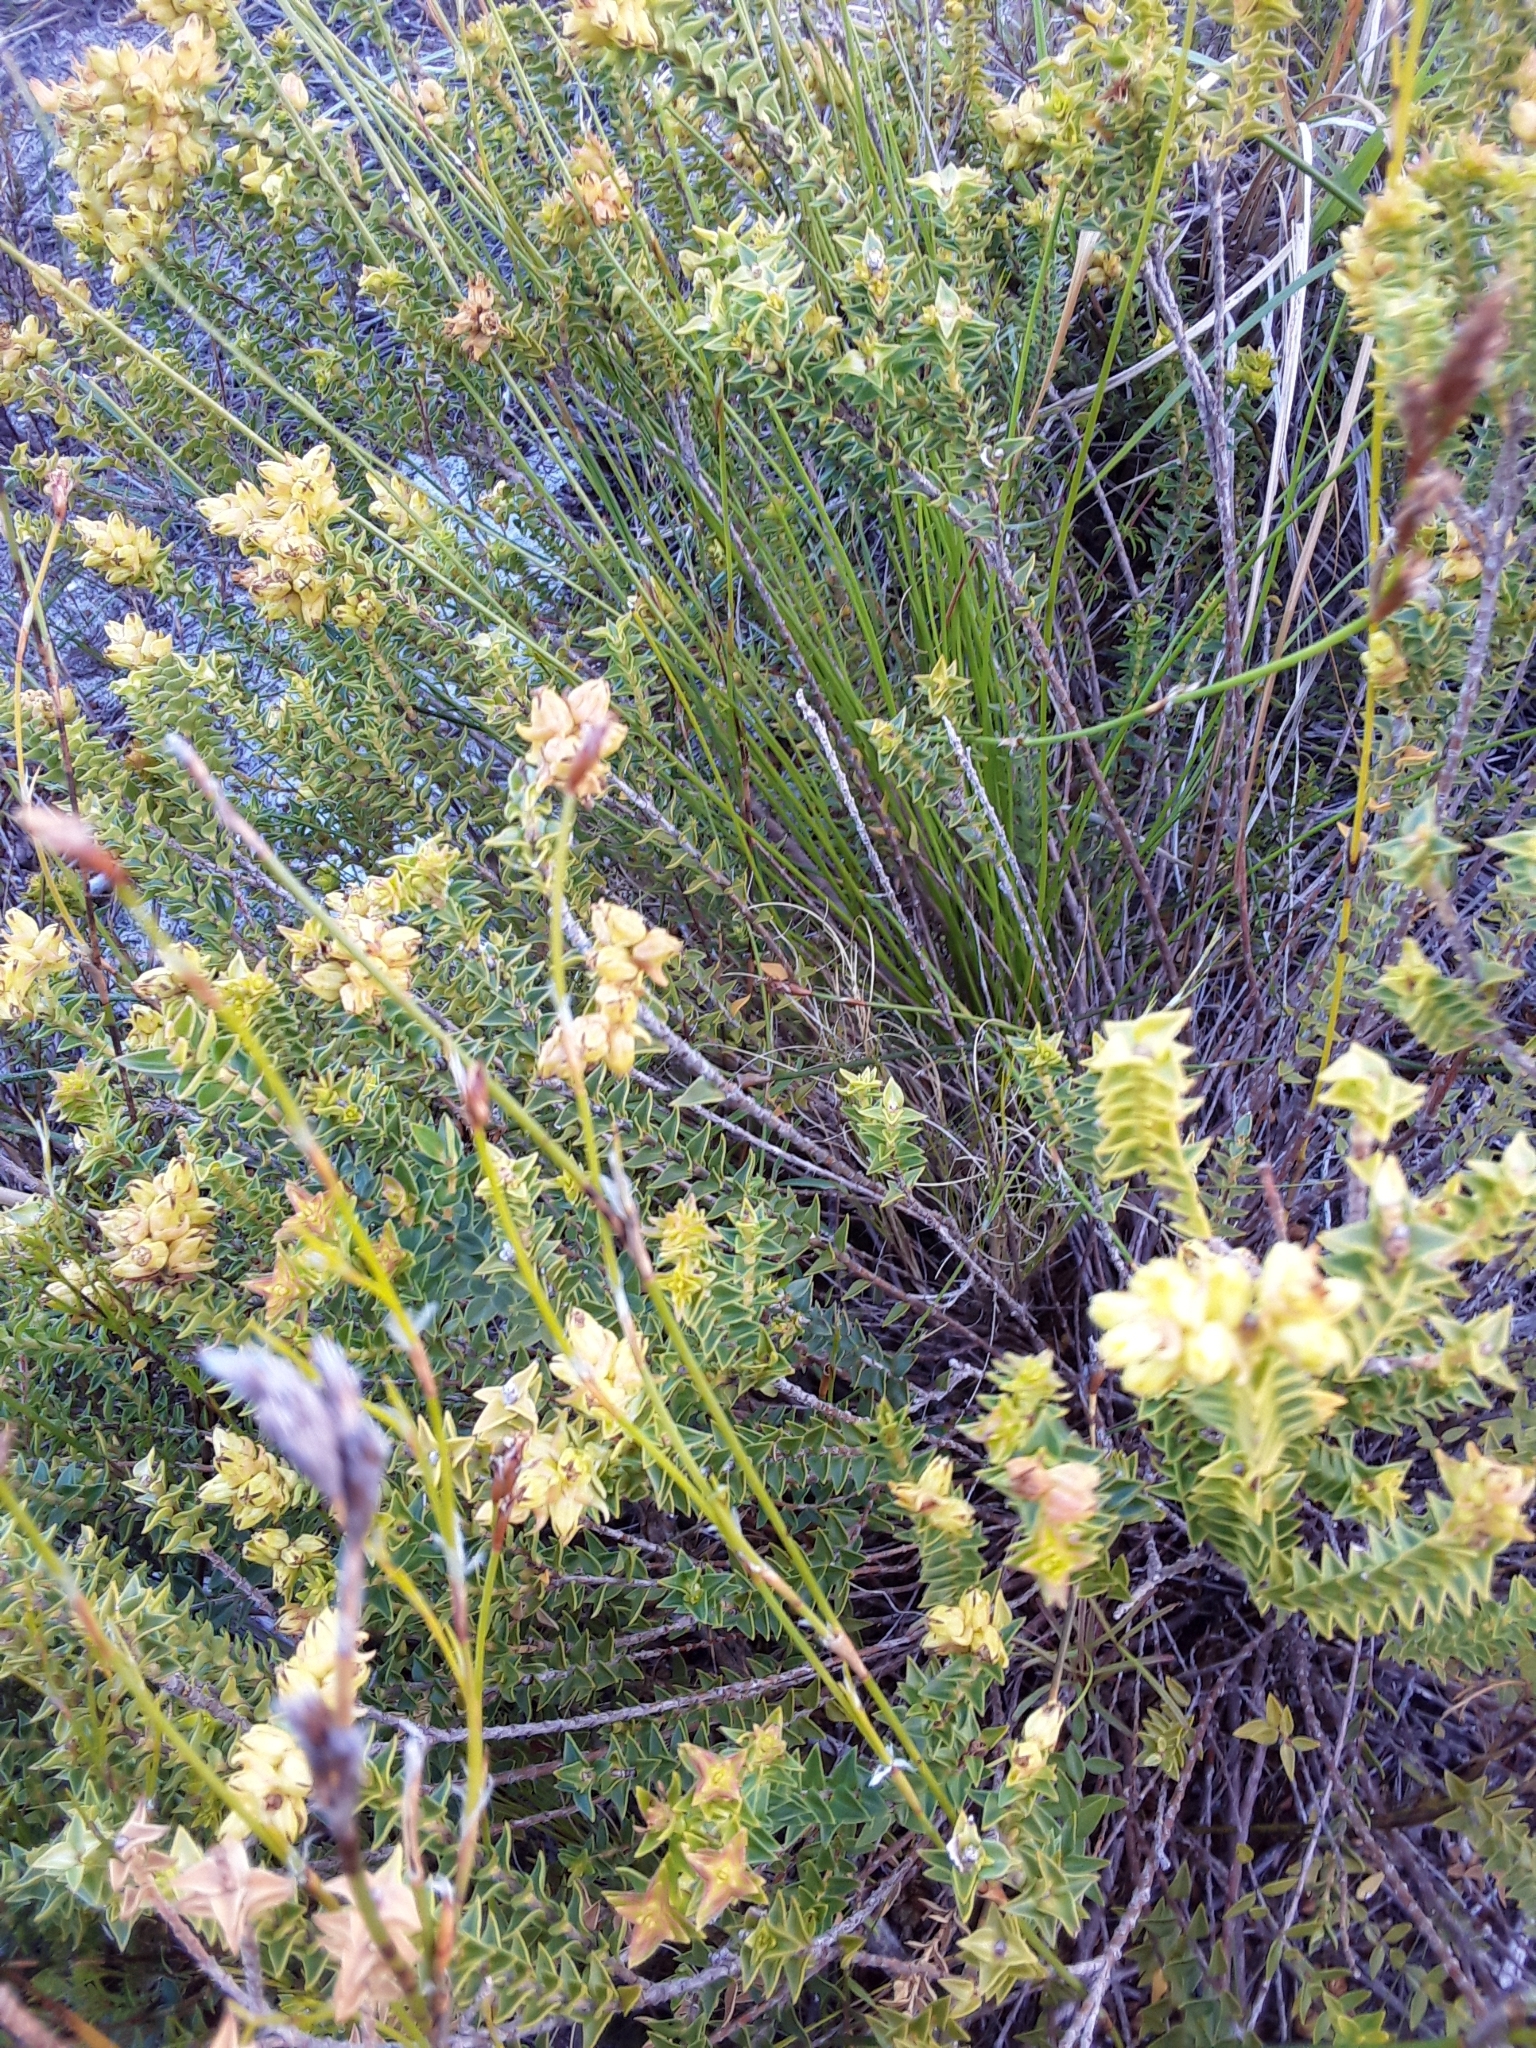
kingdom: Plantae
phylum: Tracheophyta
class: Magnoliopsida
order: Myrtales
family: Penaeaceae
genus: Penaea
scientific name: Penaea mucronata
